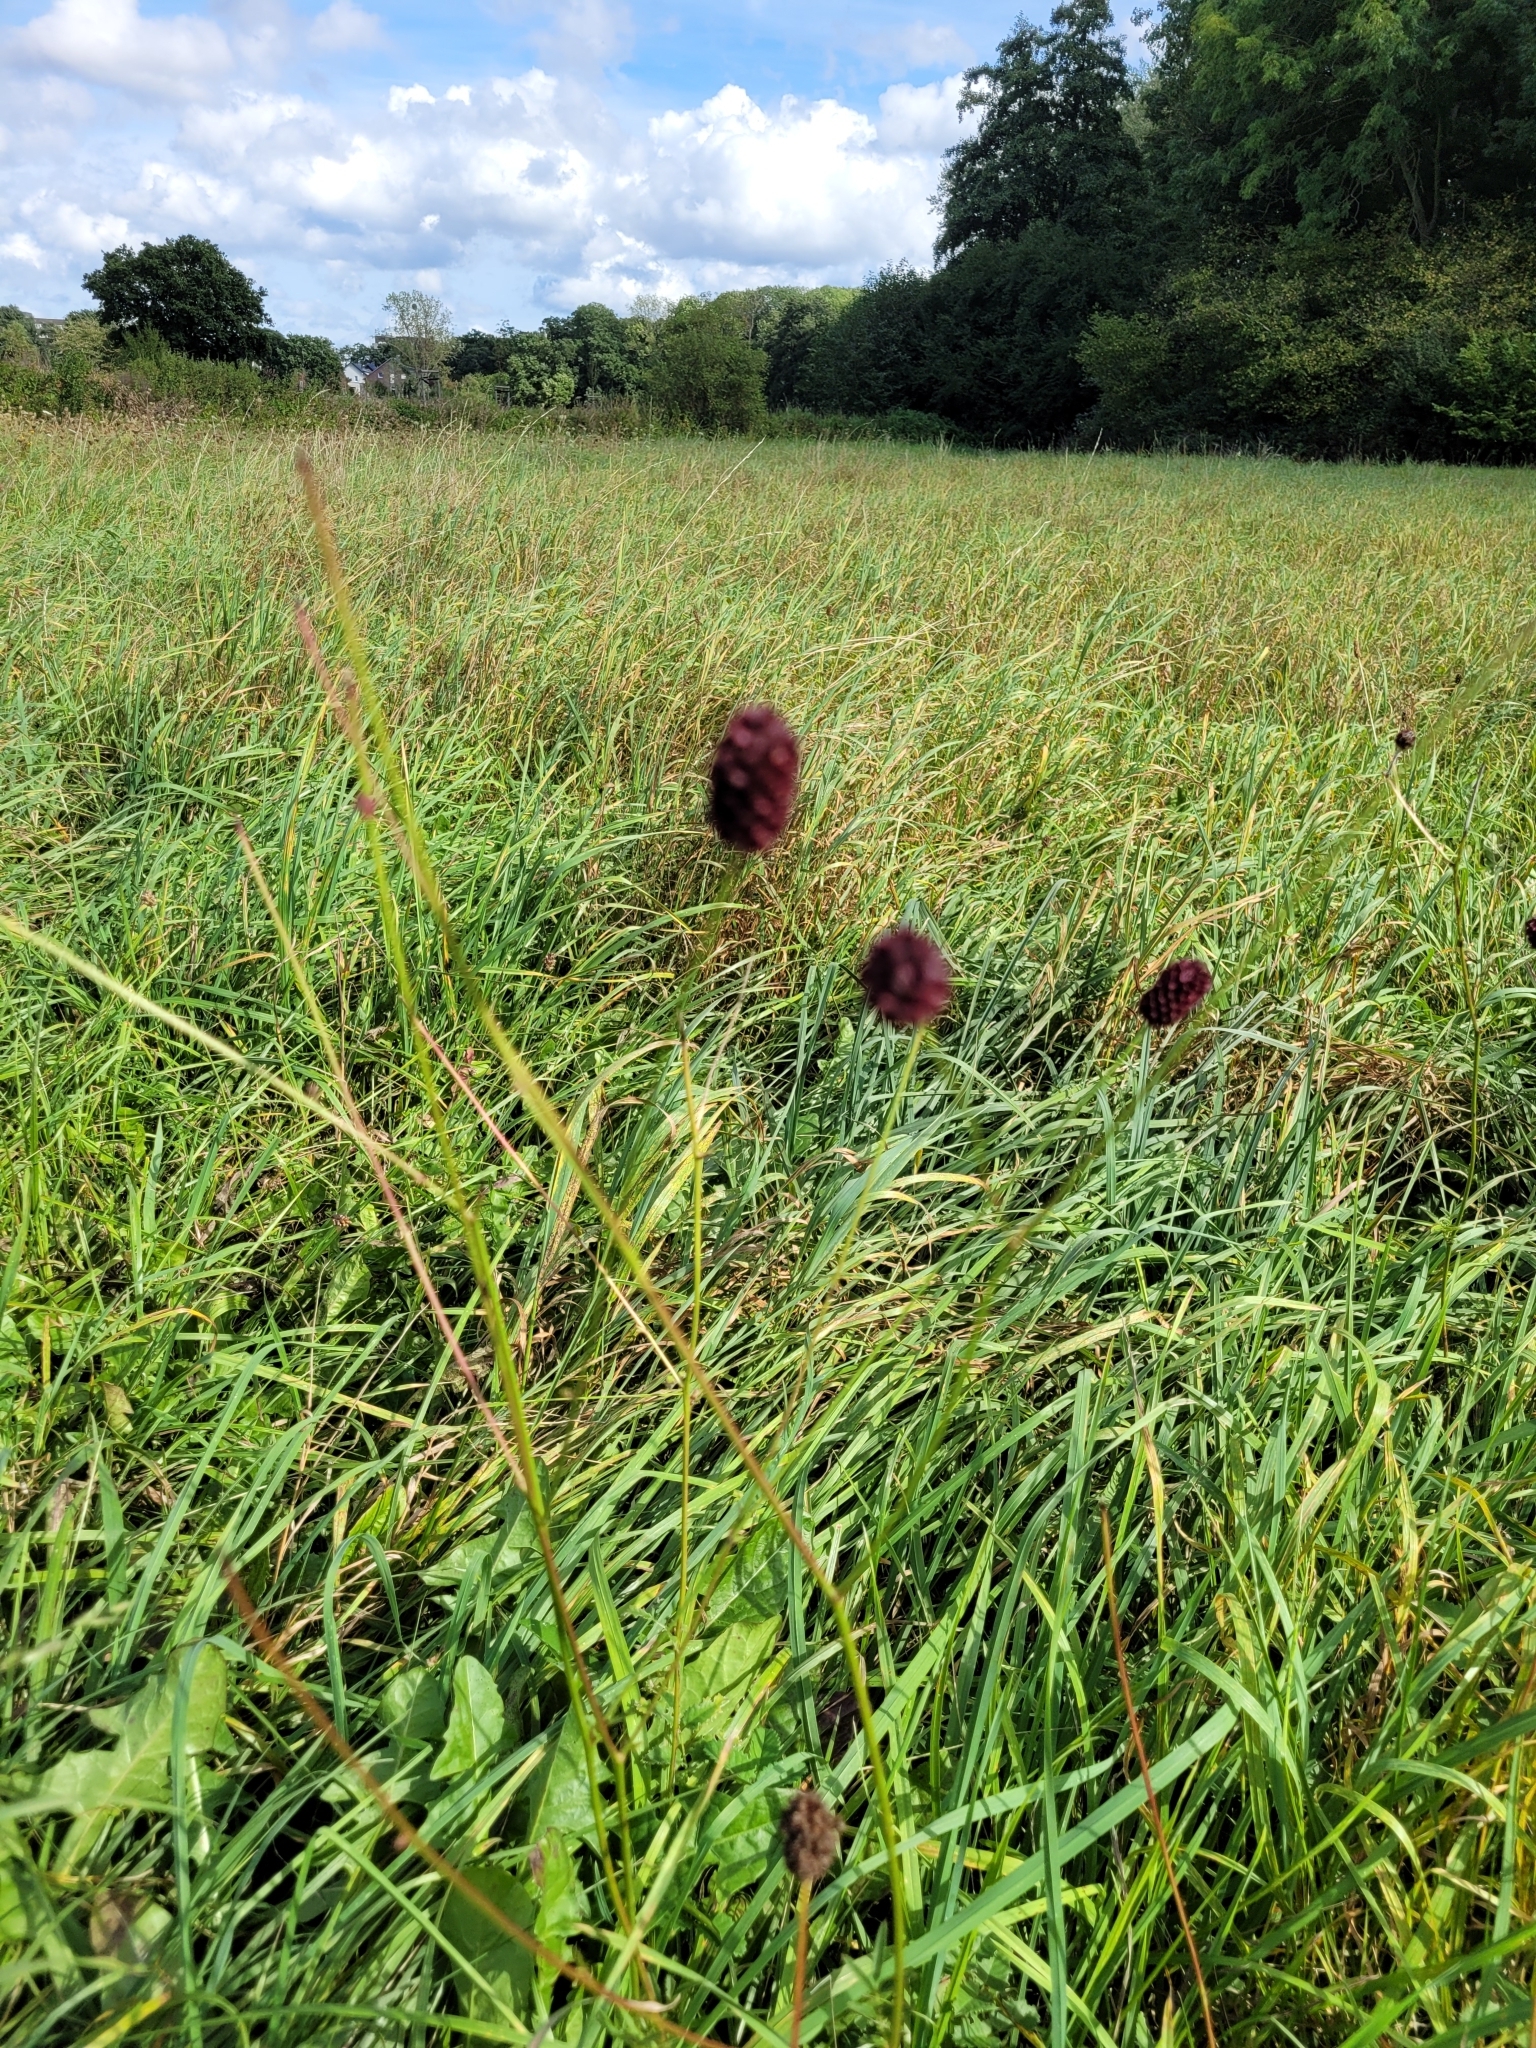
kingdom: Plantae
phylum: Tracheophyta
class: Magnoliopsida
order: Rosales
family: Rosaceae
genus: Sanguisorba
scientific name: Sanguisorba officinalis
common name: Great burnet
